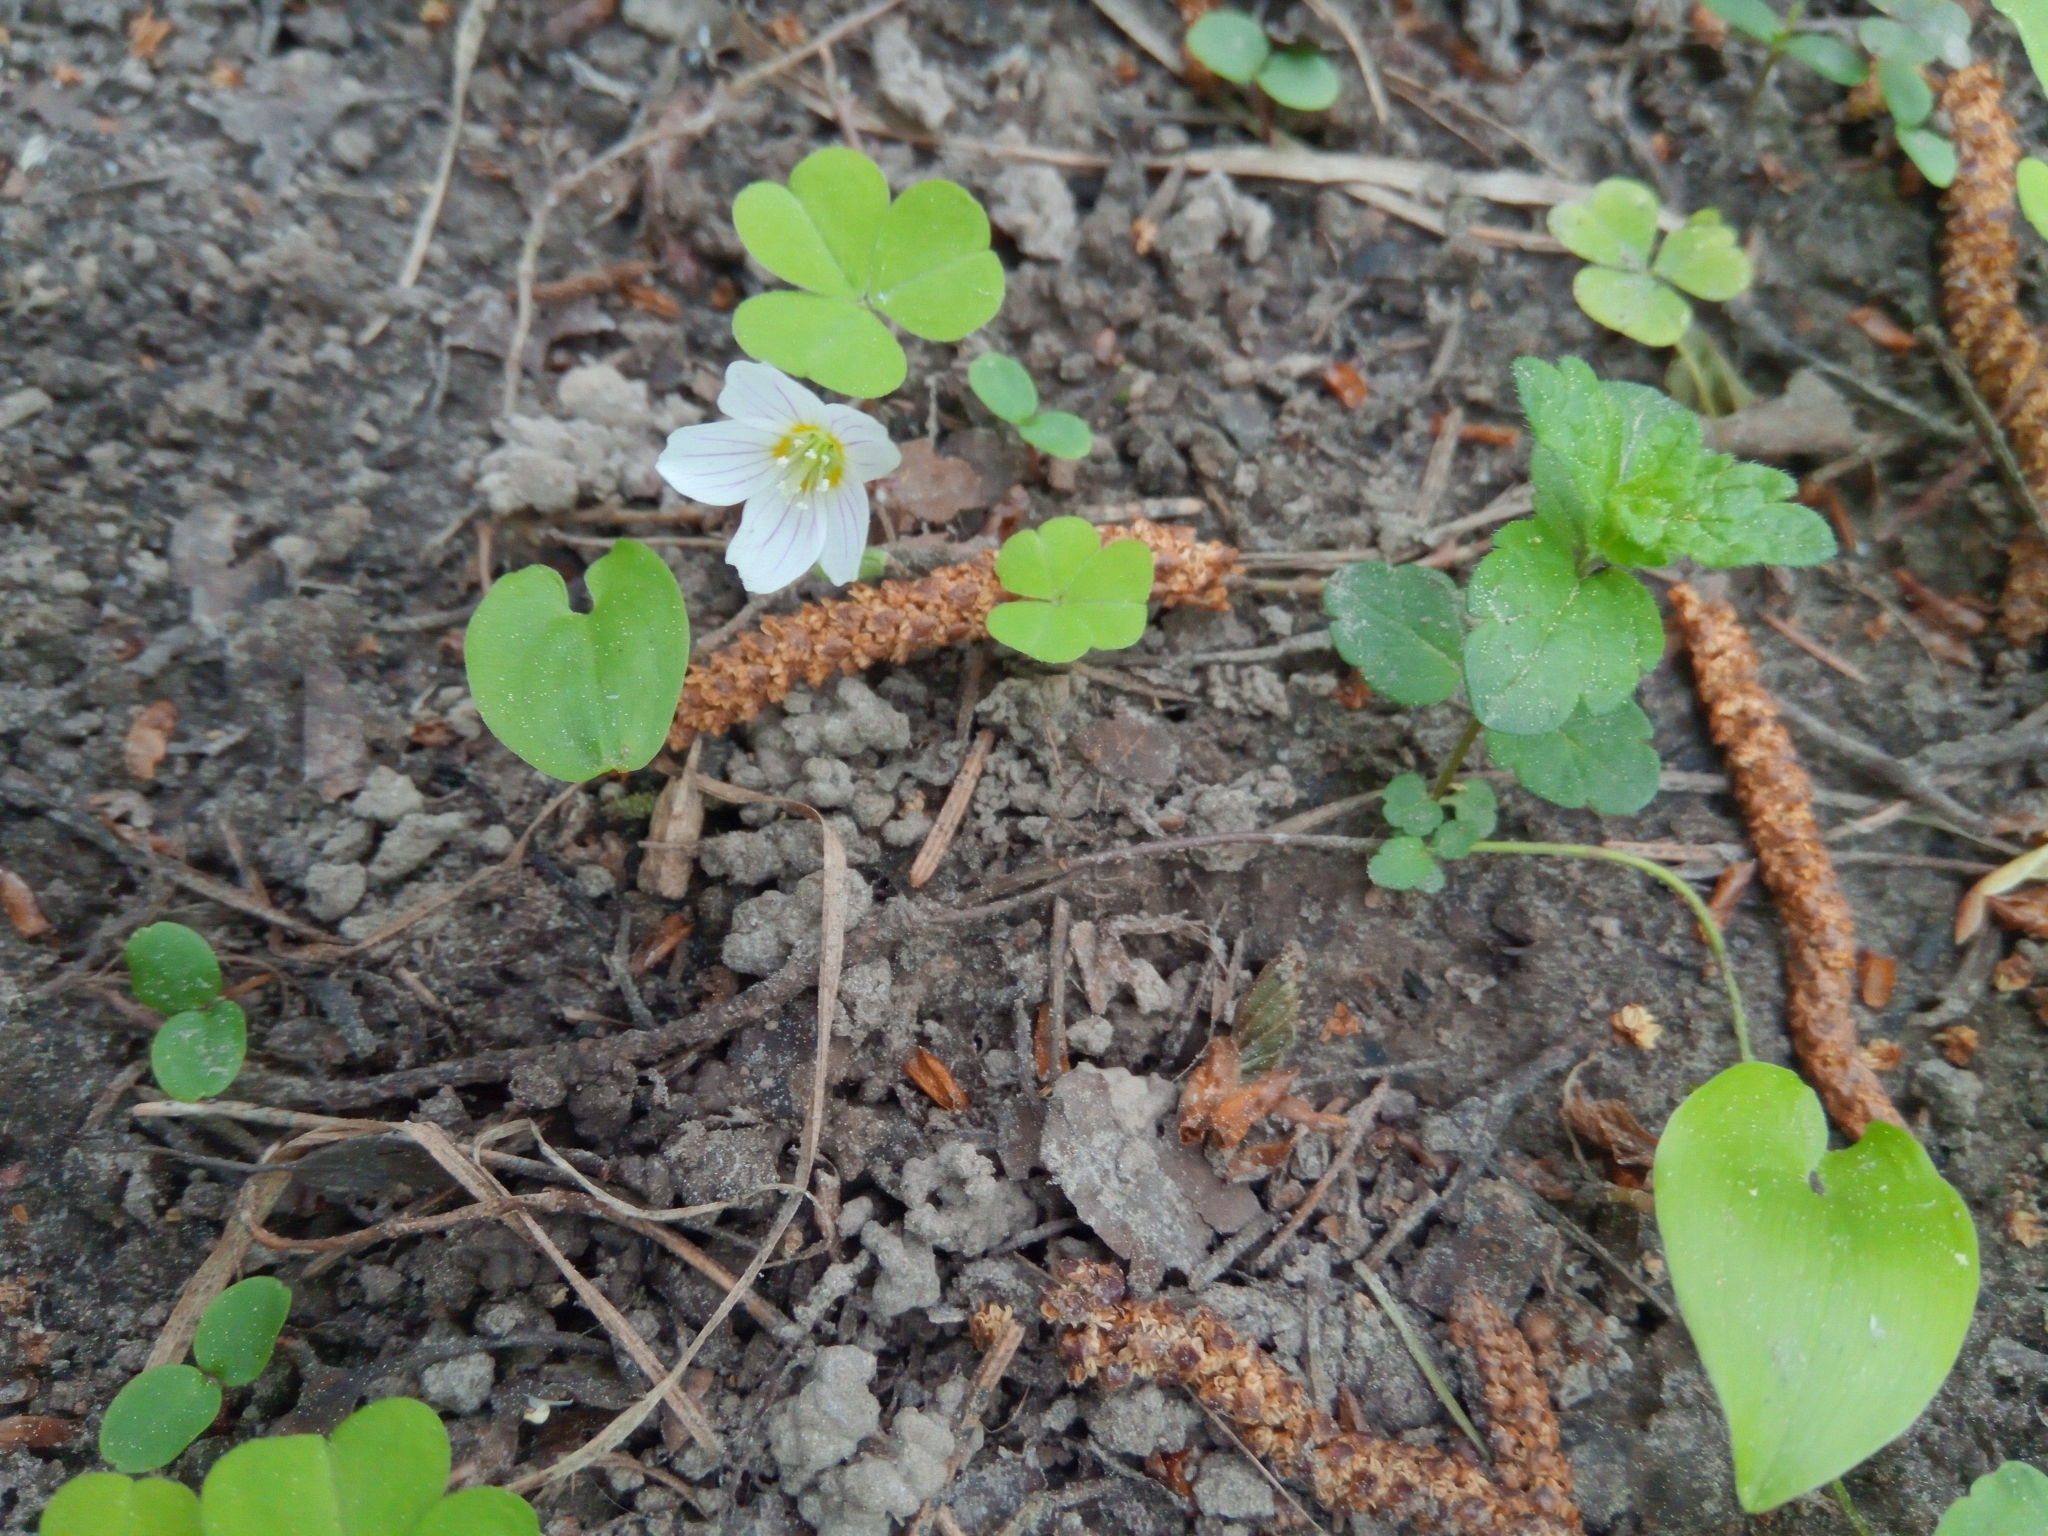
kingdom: Plantae
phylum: Tracheophyta
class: Magnoliopsida
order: Oxalidales
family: Oxalidaceae
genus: Oxalis
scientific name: Oxalis acetosella
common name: Wood-sorrel
